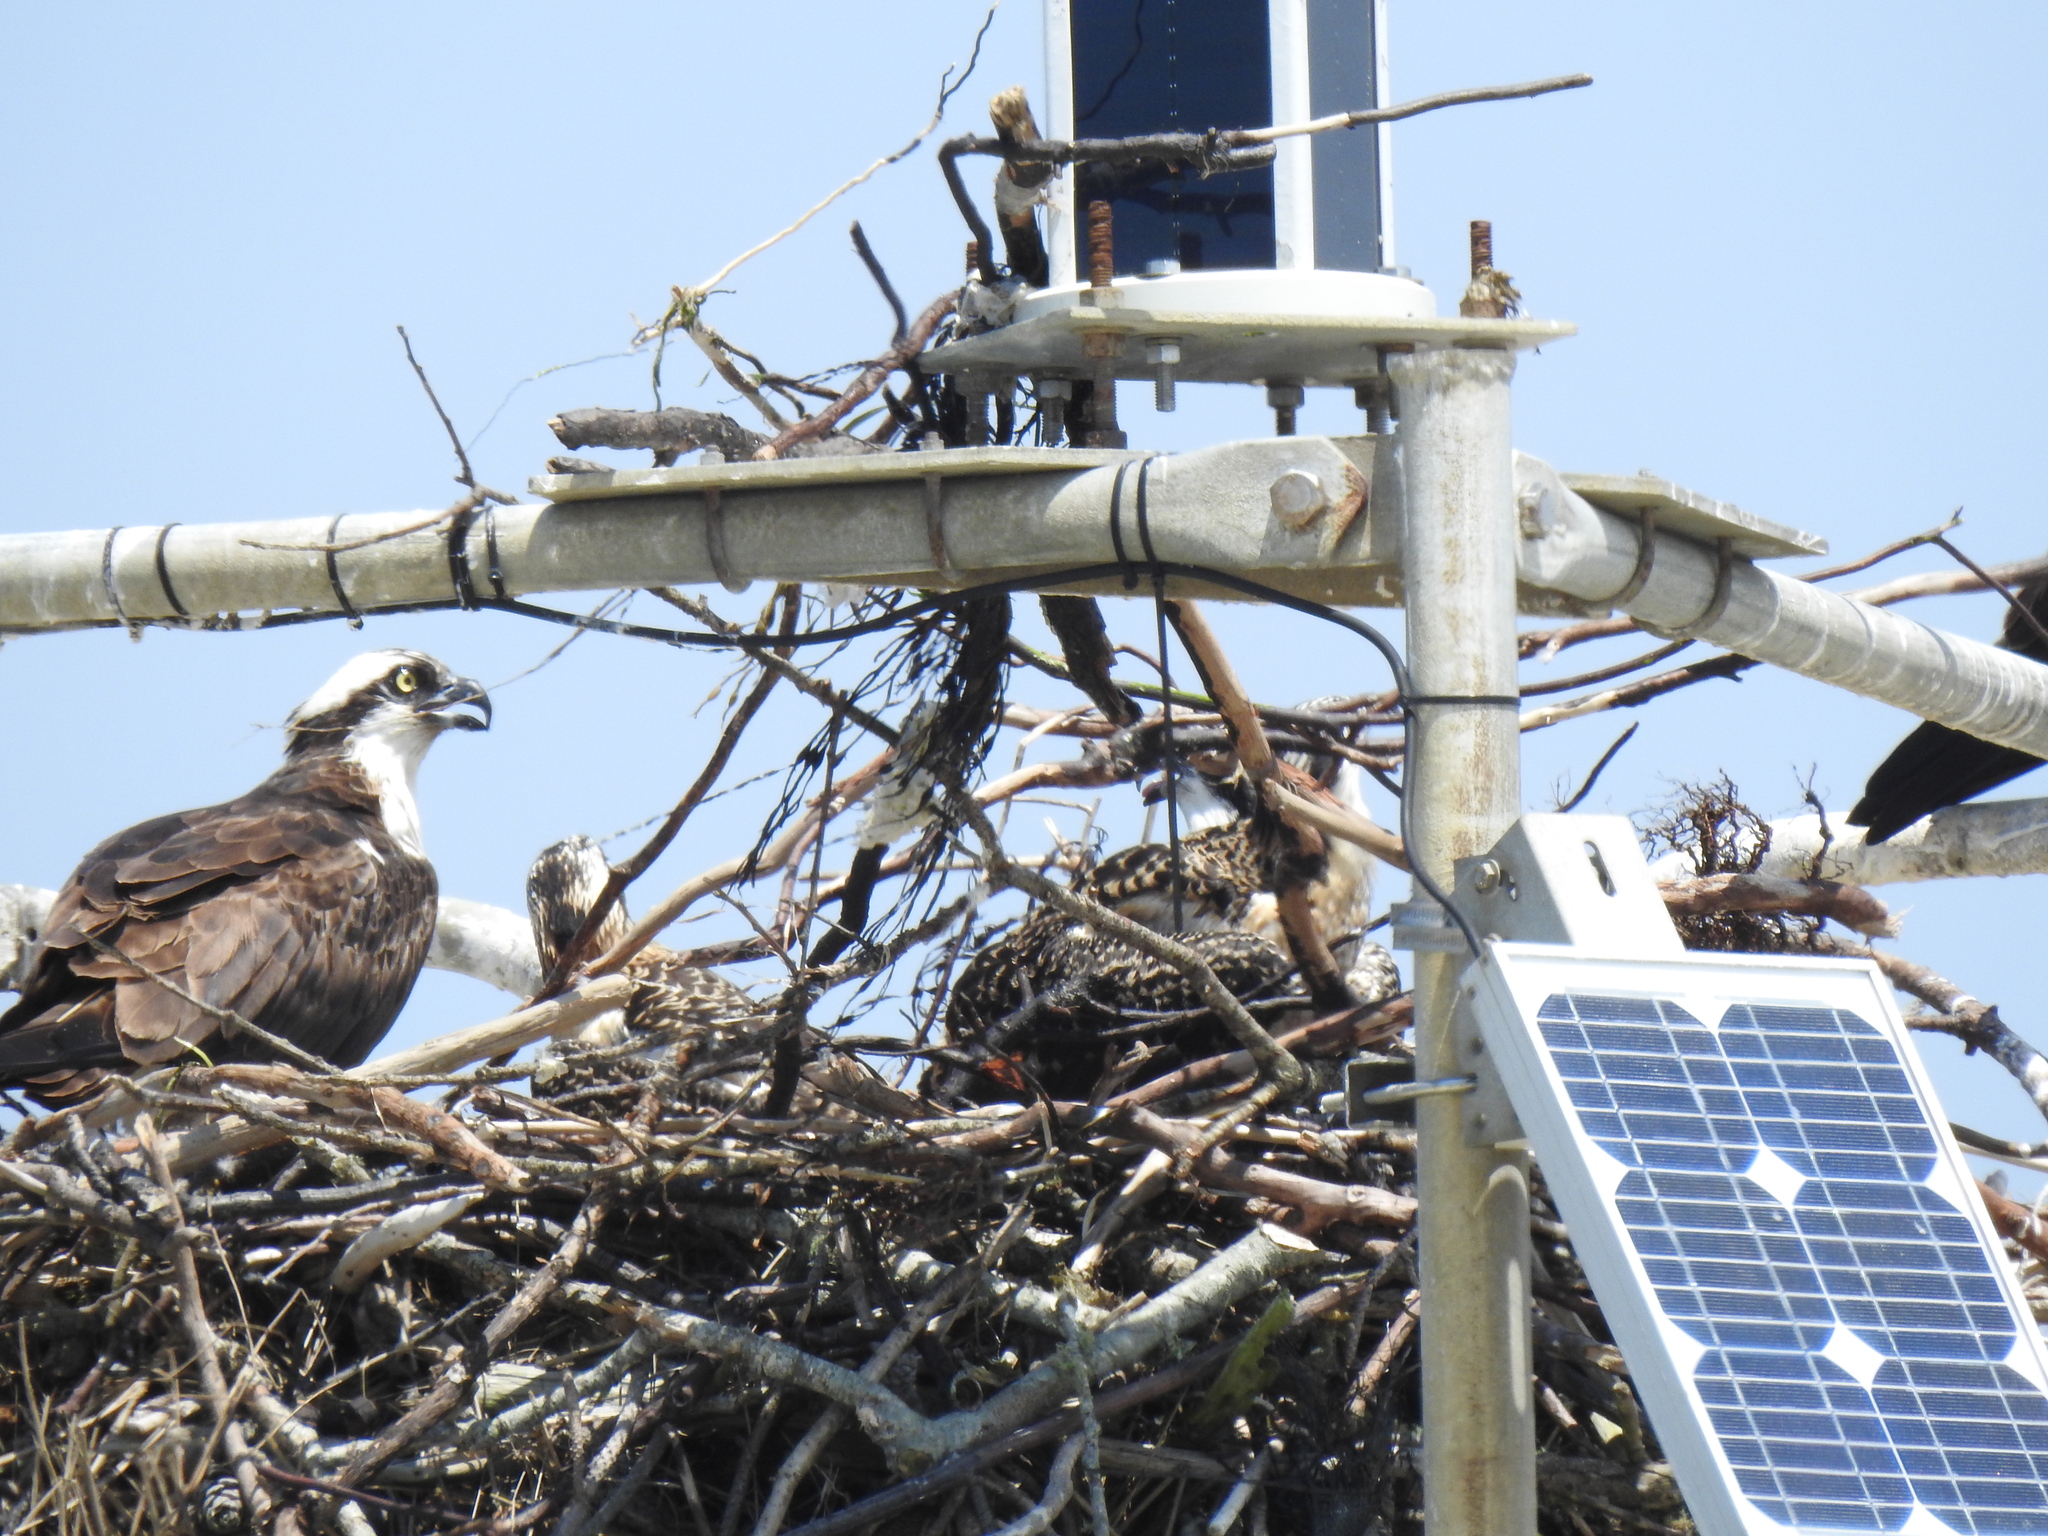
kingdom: Animalia
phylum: Chordata
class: Aves
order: Accipitriformes
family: Pandionidae
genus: Pandion
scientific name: Pandion haliaetus
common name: Osprey
